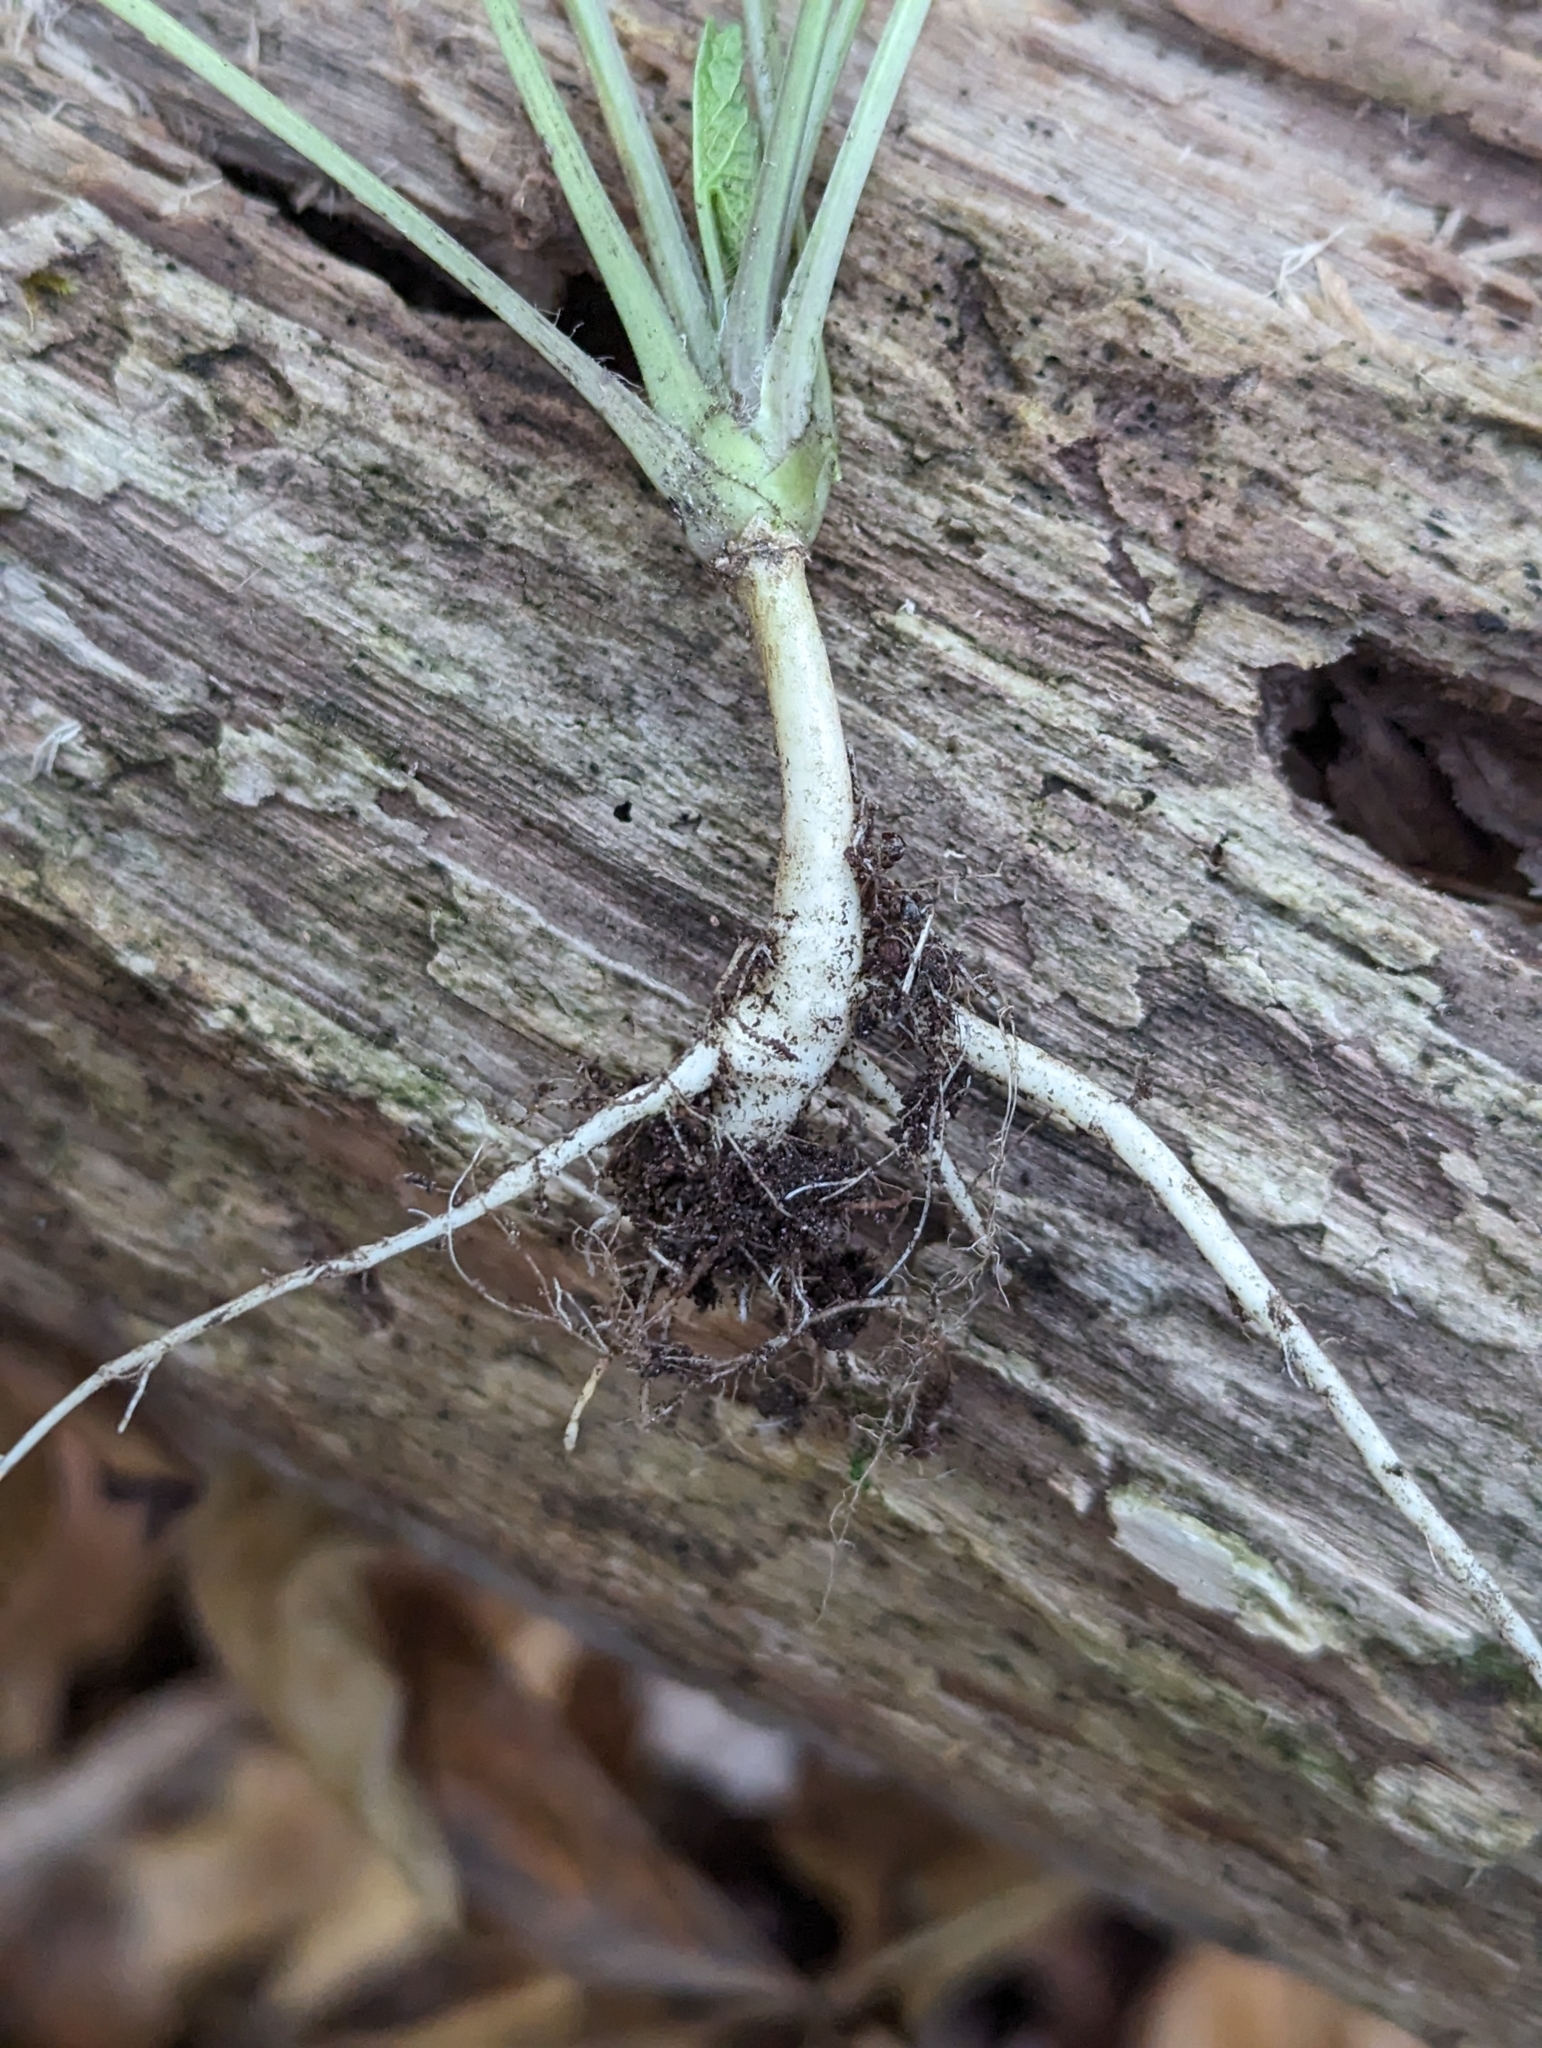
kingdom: Plantae
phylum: Tracheophyta
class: Magnoliopsida
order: Brassicales
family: Brassicaceae
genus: Alliaria
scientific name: Alliaria petiolata
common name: Garlic mustard
